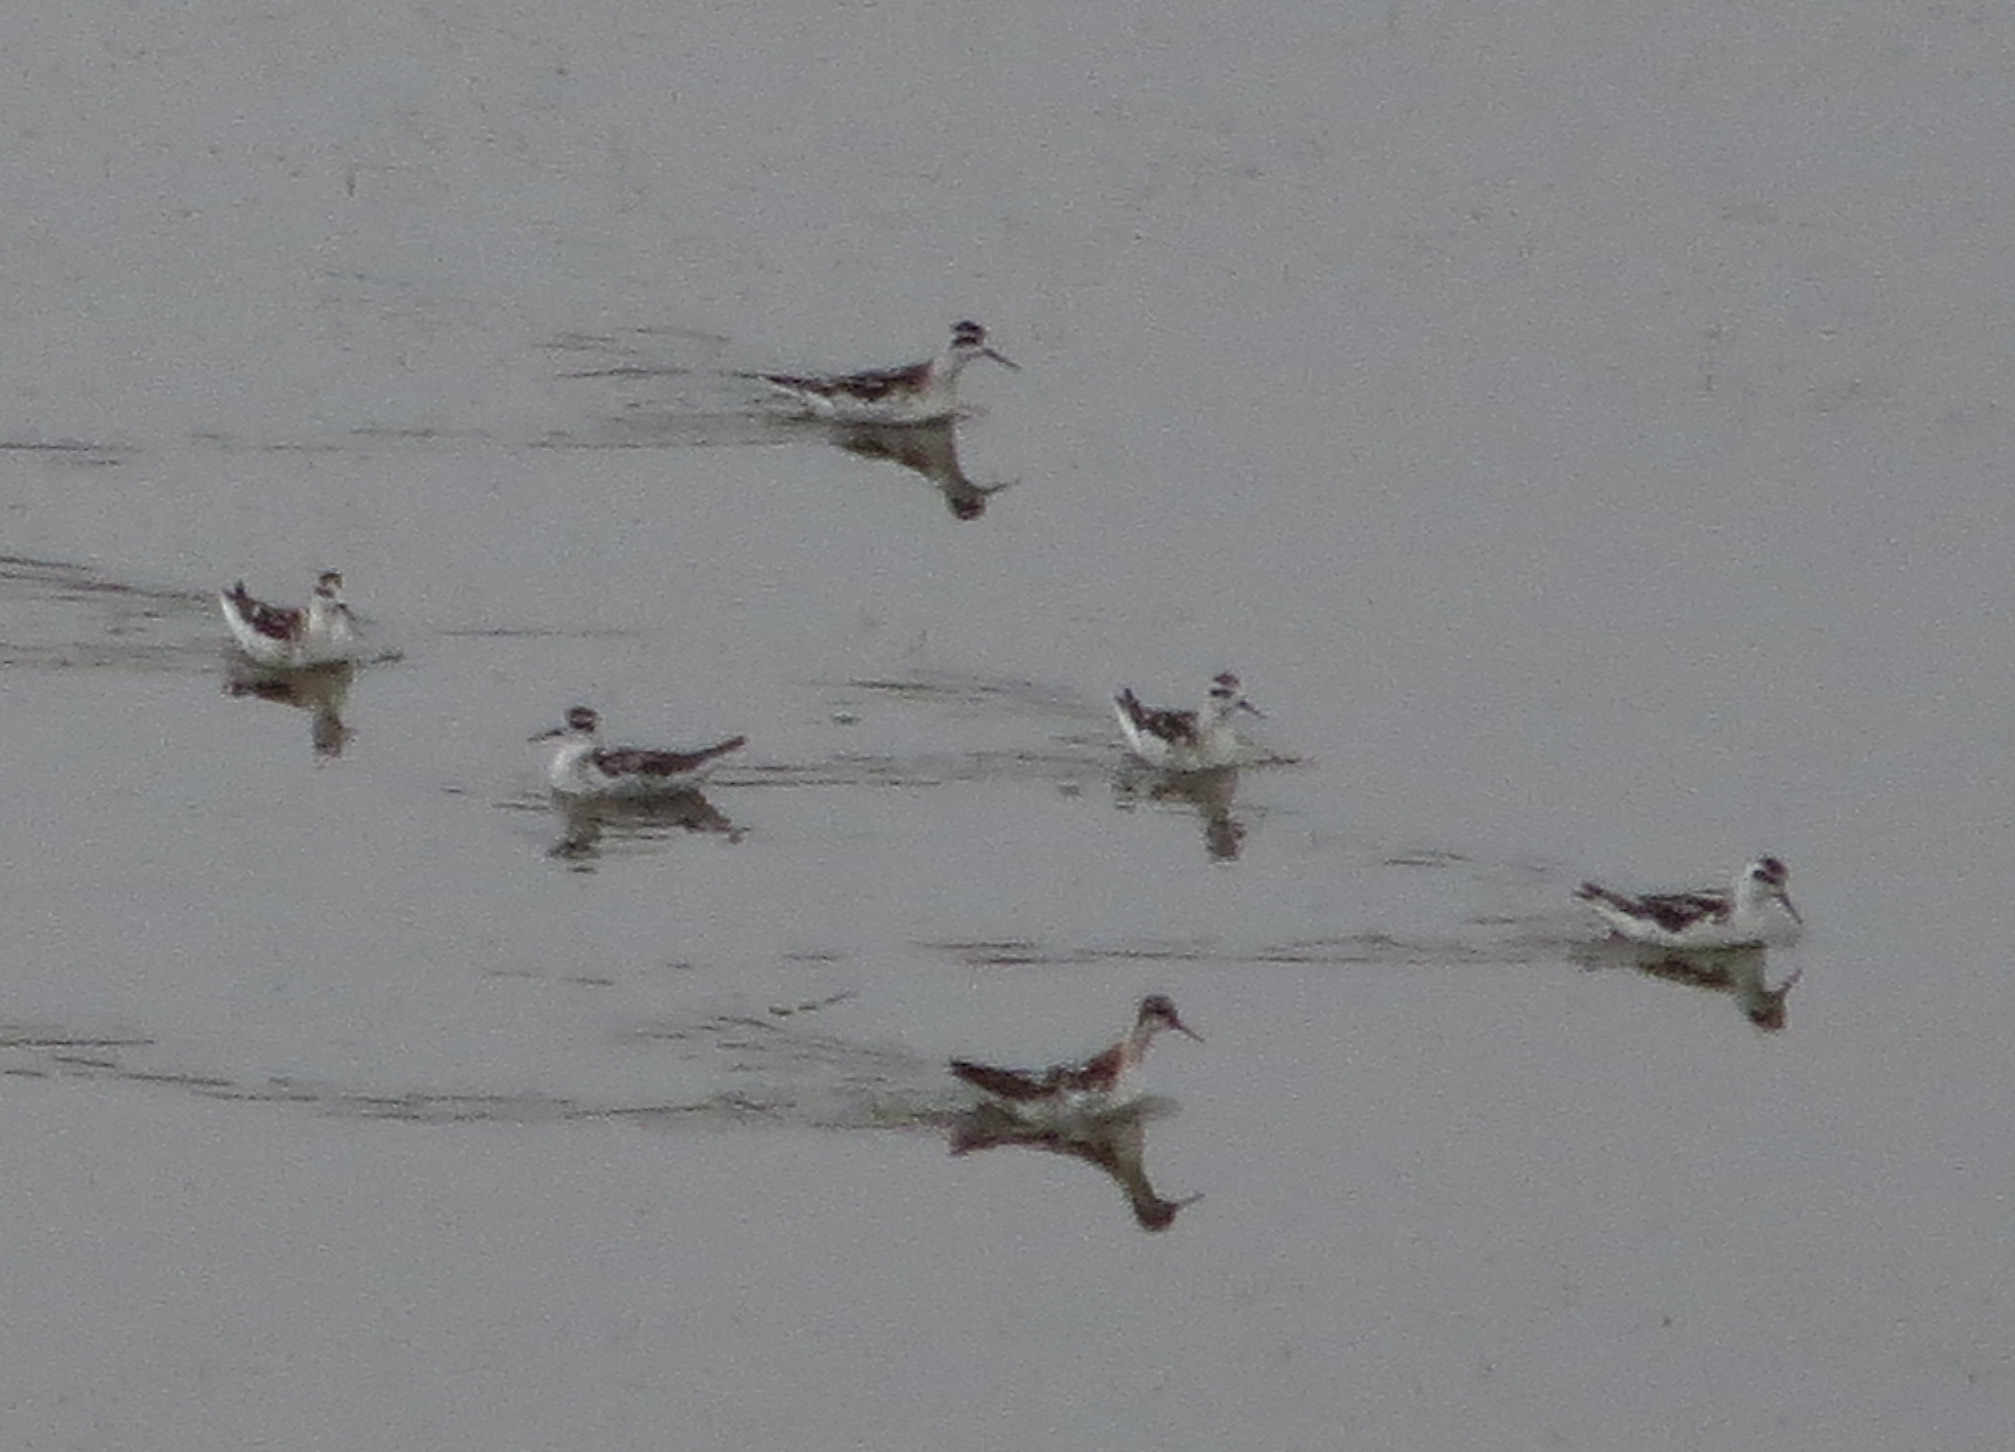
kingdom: Animalia
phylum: Chordata
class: Aves
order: Charadriiformes
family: Scolopacidae
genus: Phalaropus
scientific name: Phalaropus lobatus
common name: Red-necked phalarope
